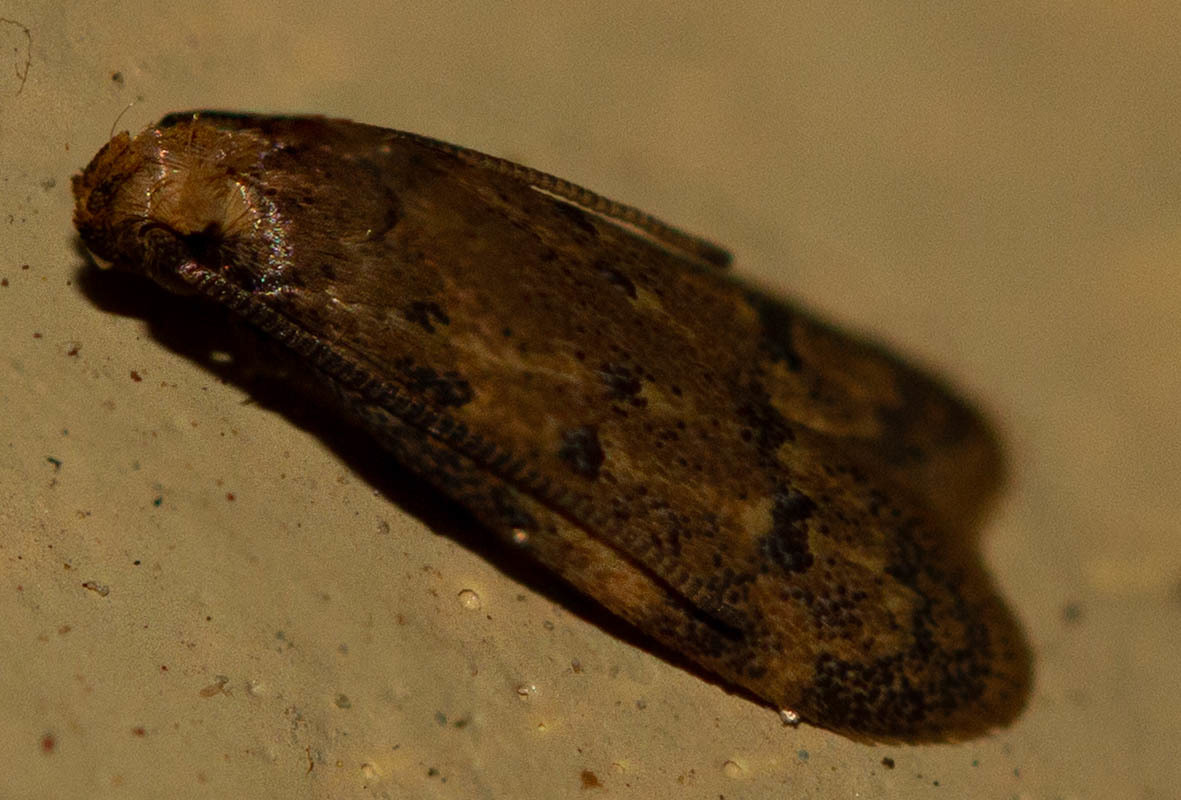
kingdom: Animalia
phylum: Arthropoda
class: Insecta
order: Lepidoptera
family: Autostichidae
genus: Gerdana
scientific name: Gerdana caritella
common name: Gerdana moth
